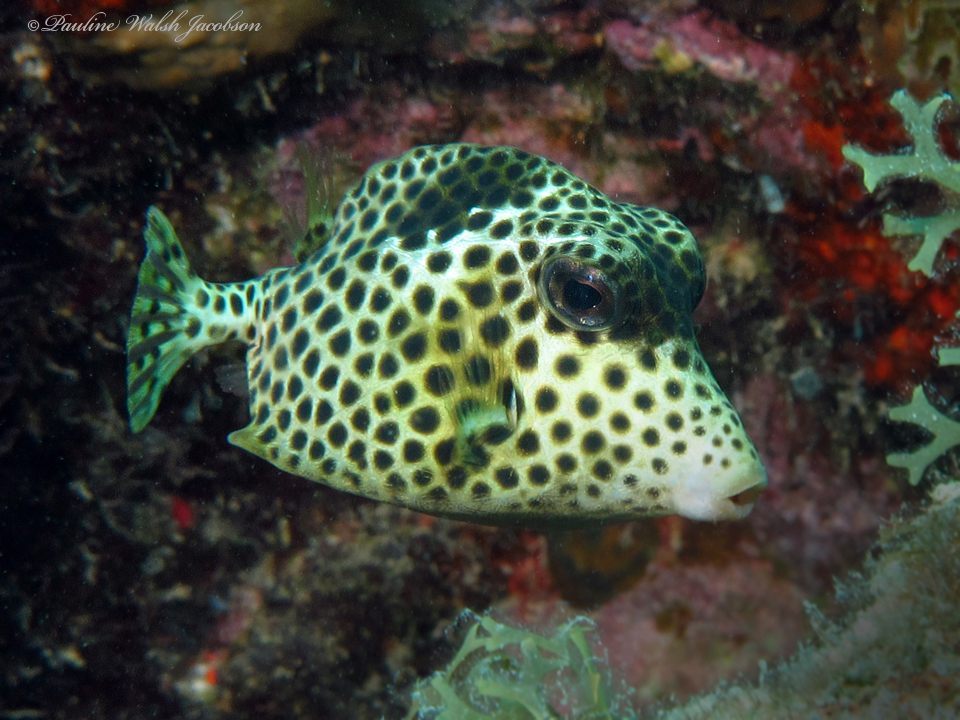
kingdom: Animalia
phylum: Chordata
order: Tetraodontiformes
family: Ostraciidae
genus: Lactophrys
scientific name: Lactophrys bicaudalis
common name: Spotted trunkfish
